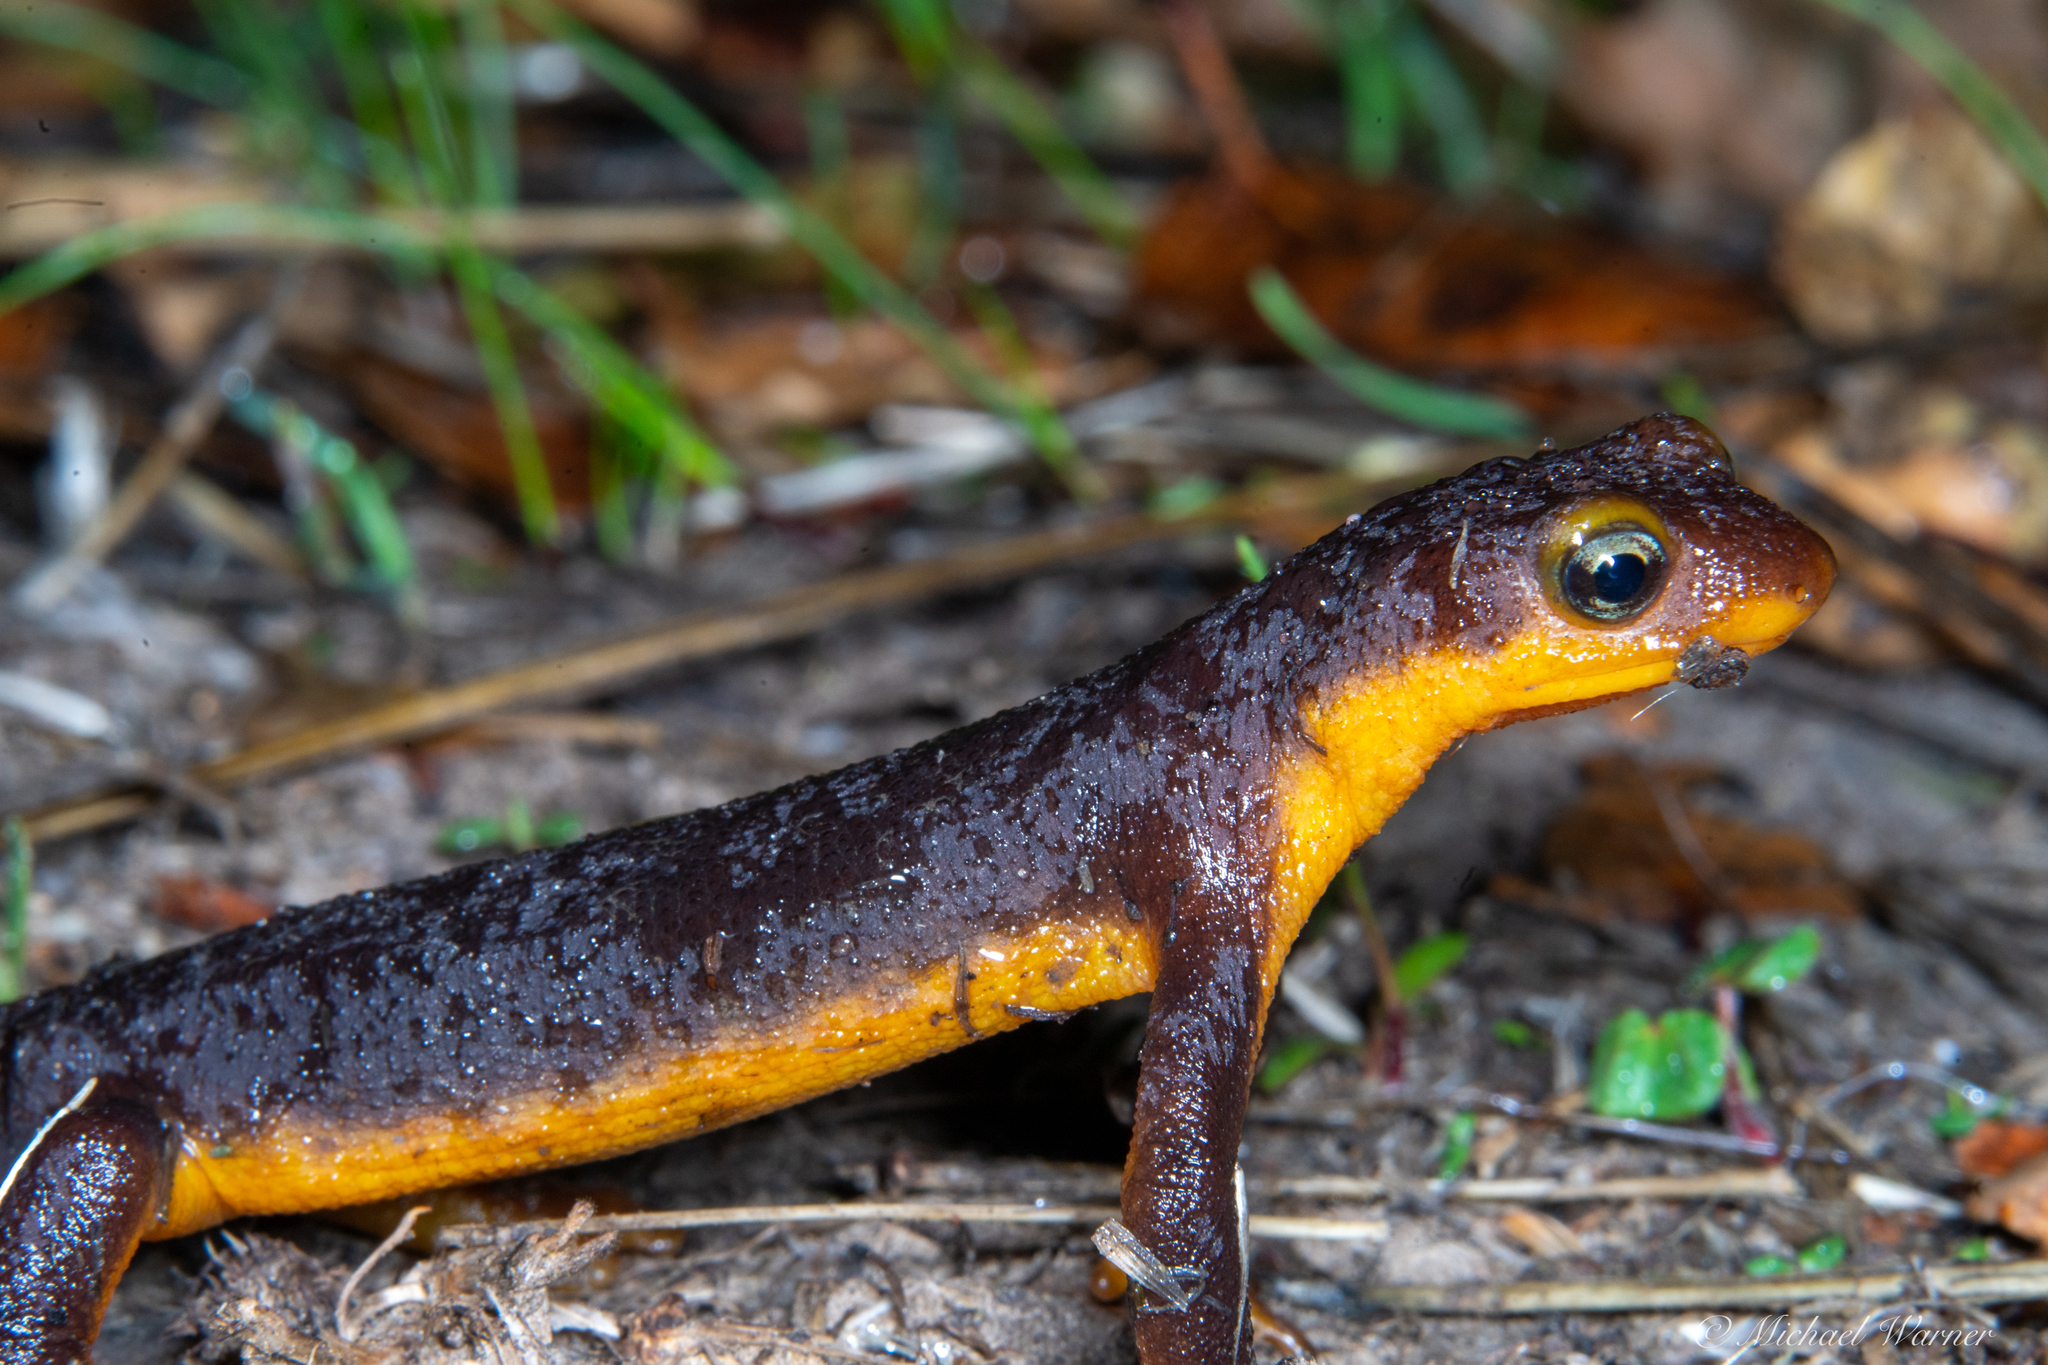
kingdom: Animalia
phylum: Chordata
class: Amphibia
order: Caudata
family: Salamandridae
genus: Taricha
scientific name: Taricha torosa
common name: California newt
